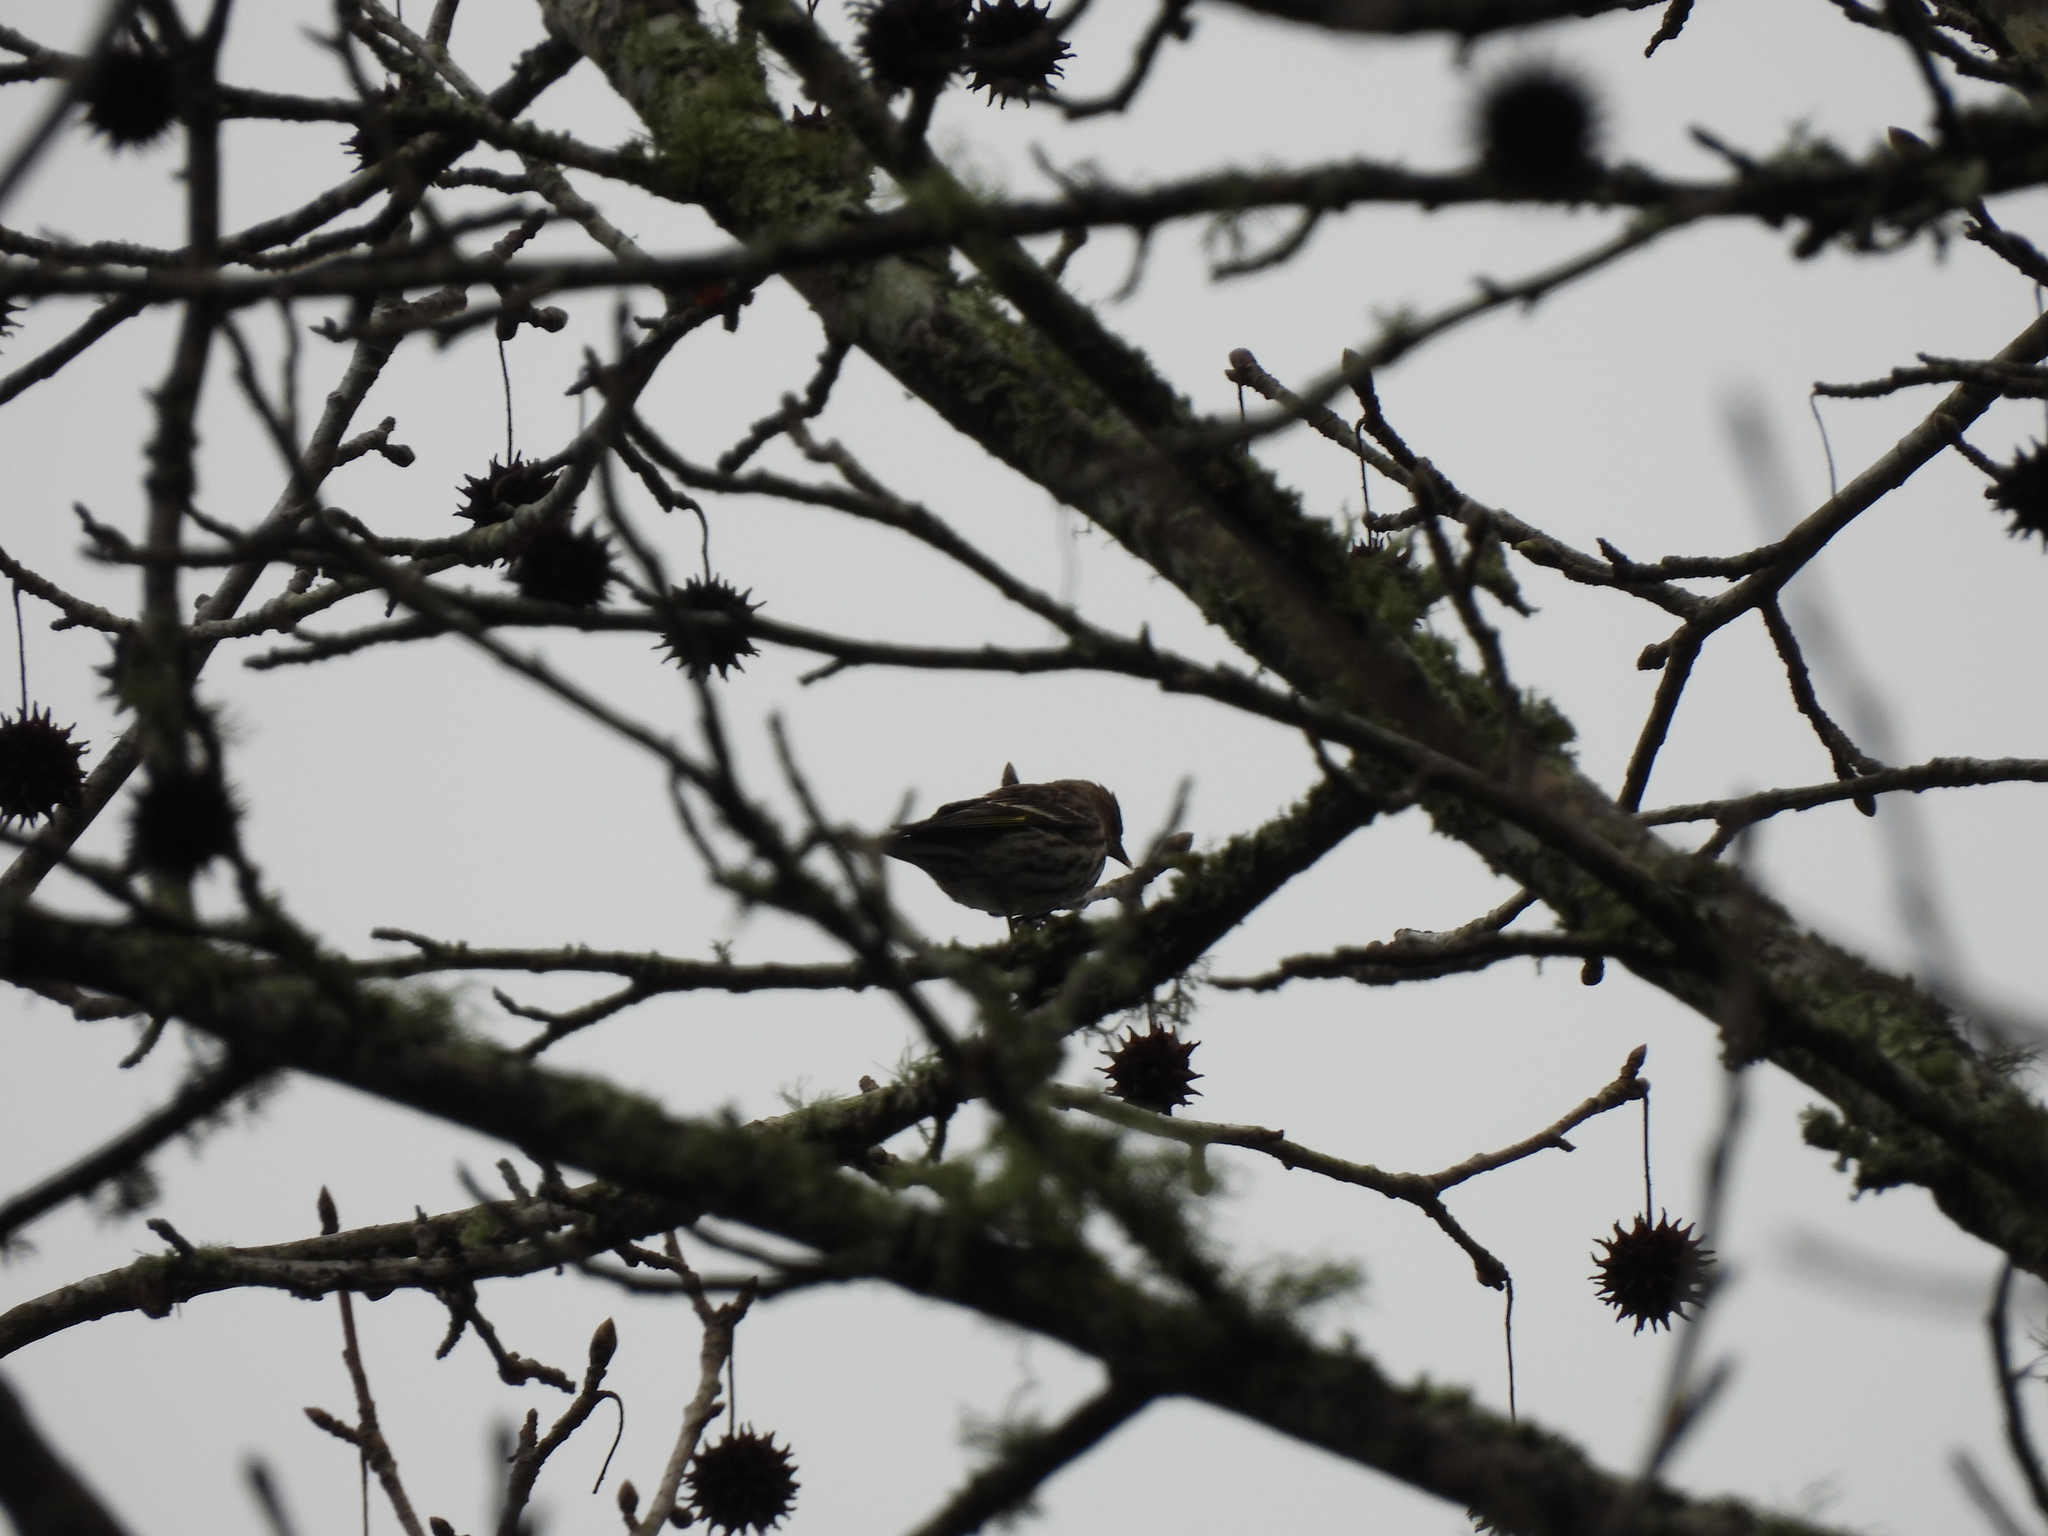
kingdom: Animalia
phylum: Chordata
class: Aves
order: Passeriformes
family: Fringillidae
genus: Spinus
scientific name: Spinus pinus
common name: Pine siskin
